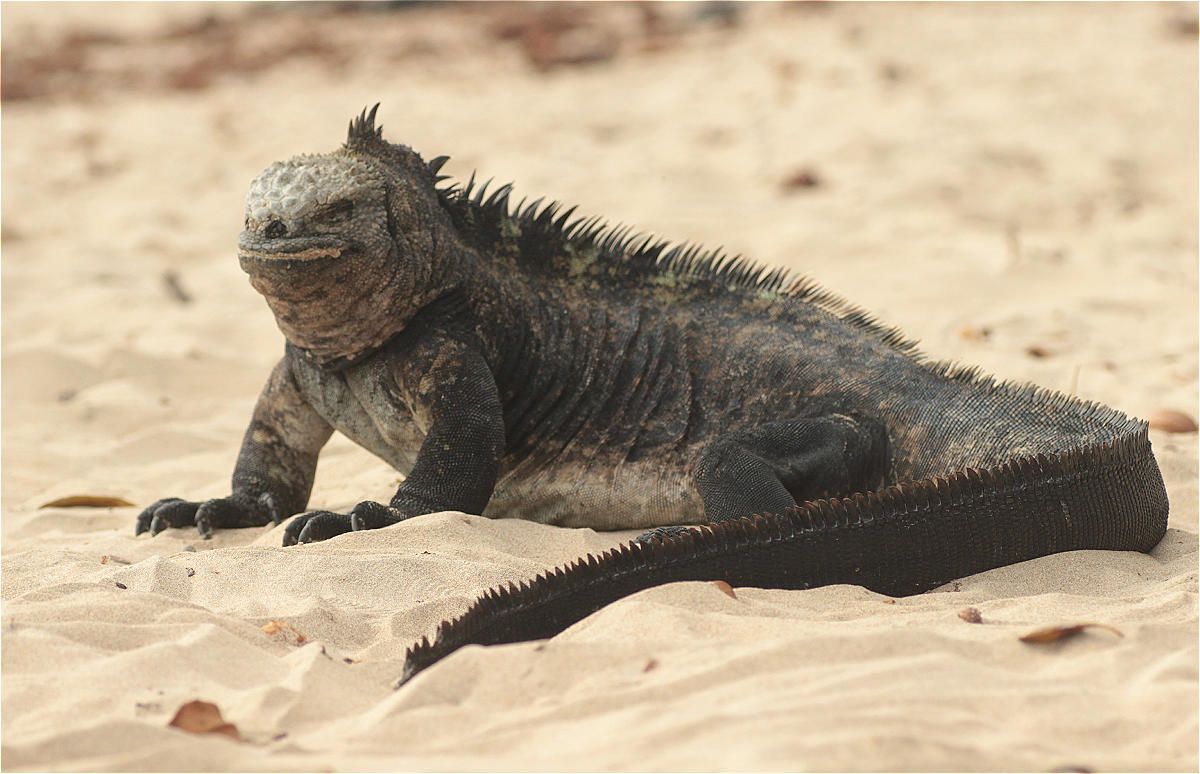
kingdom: Animalia
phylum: Chordata
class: Squamata
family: Iguanidae
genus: Amblyrhynchus
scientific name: Amblyrhynchus cristatus
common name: Marine iguana
